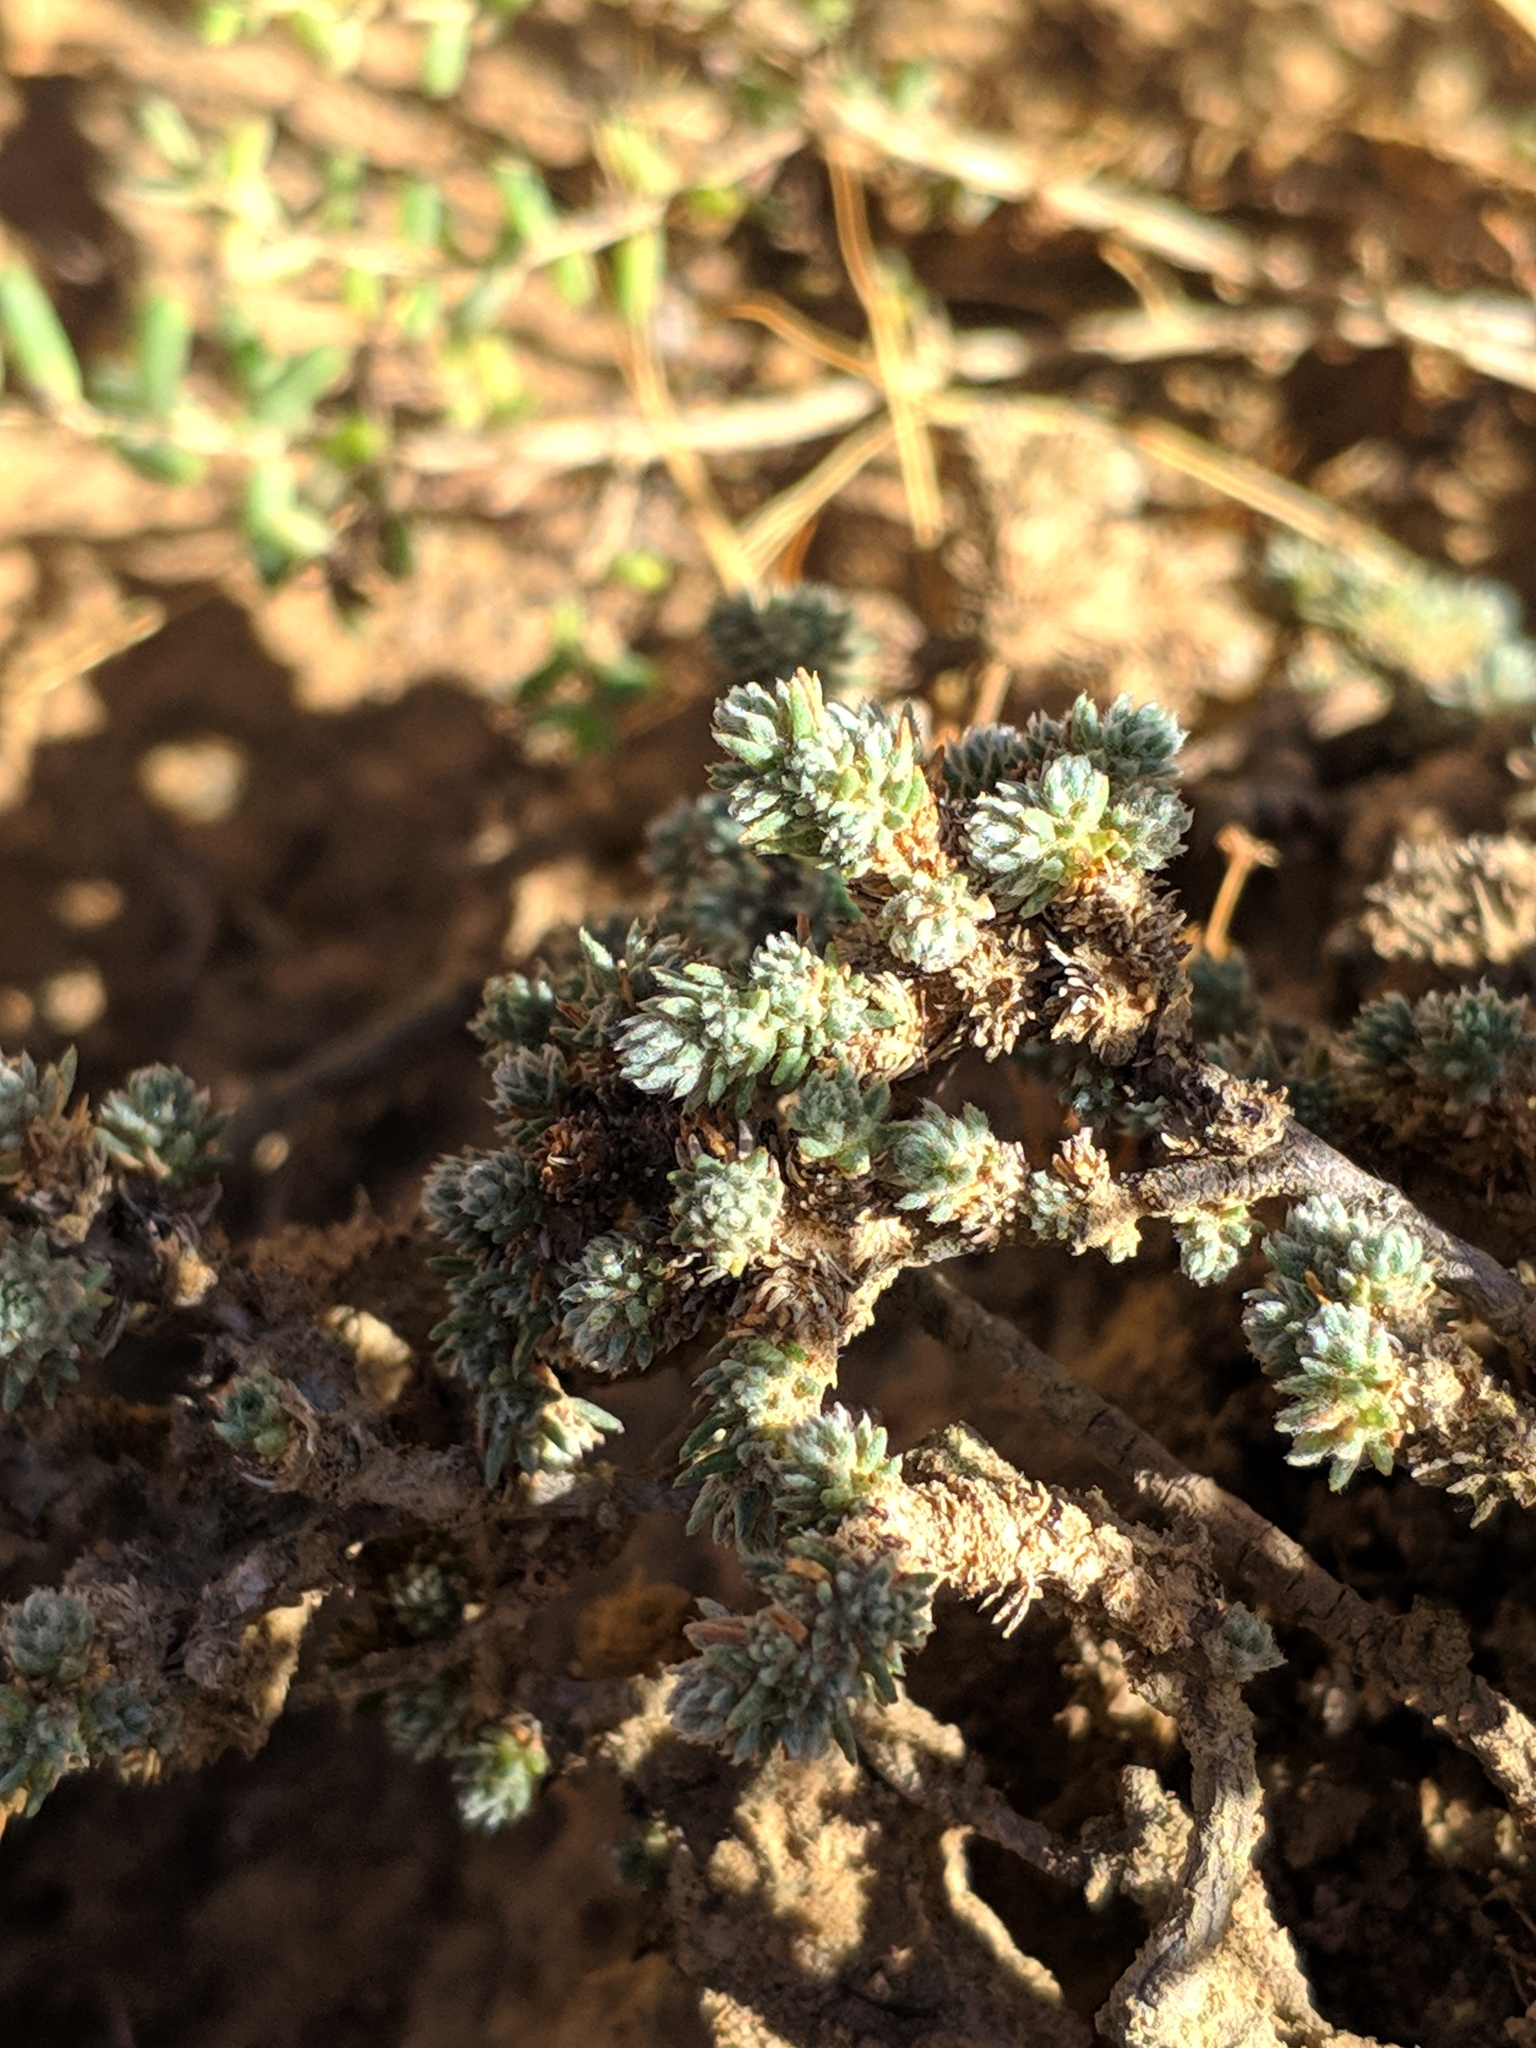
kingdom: Plantae
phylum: Tracheophyta
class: Magnoliopsida
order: Caryophyllales
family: Amaranthaceae
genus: Camphorosma
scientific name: Camphorosma monspeliaca
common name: Camphorfume
